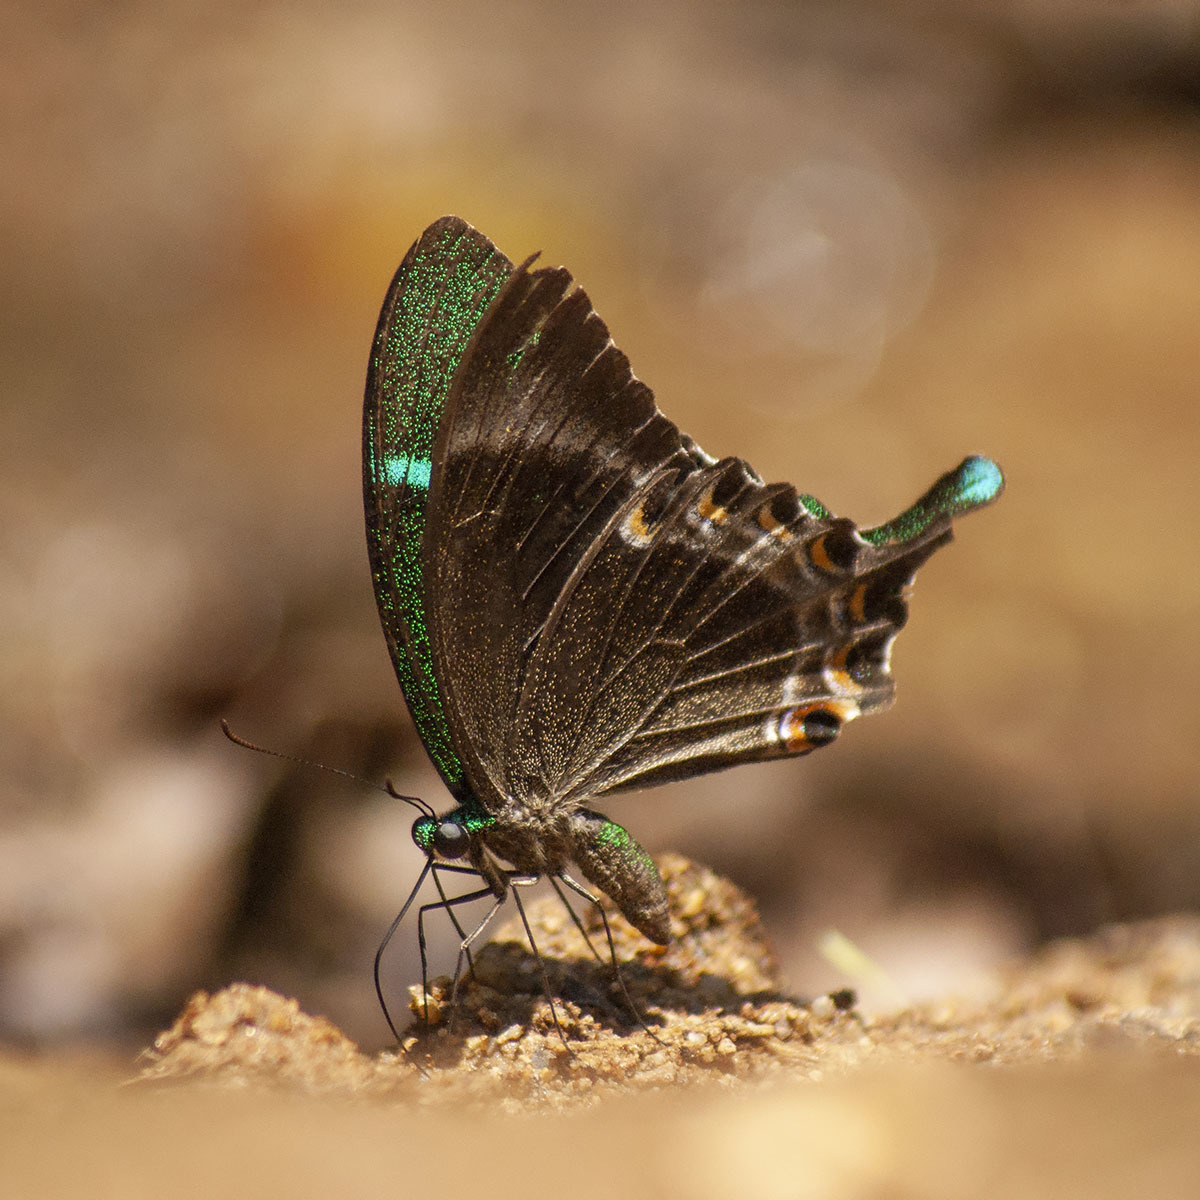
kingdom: Animalia
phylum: Arthropoda
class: Insecta
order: Lepidoptera
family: Papilionidae
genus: Papilio
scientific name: Papilio crino
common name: Common banded peacock
